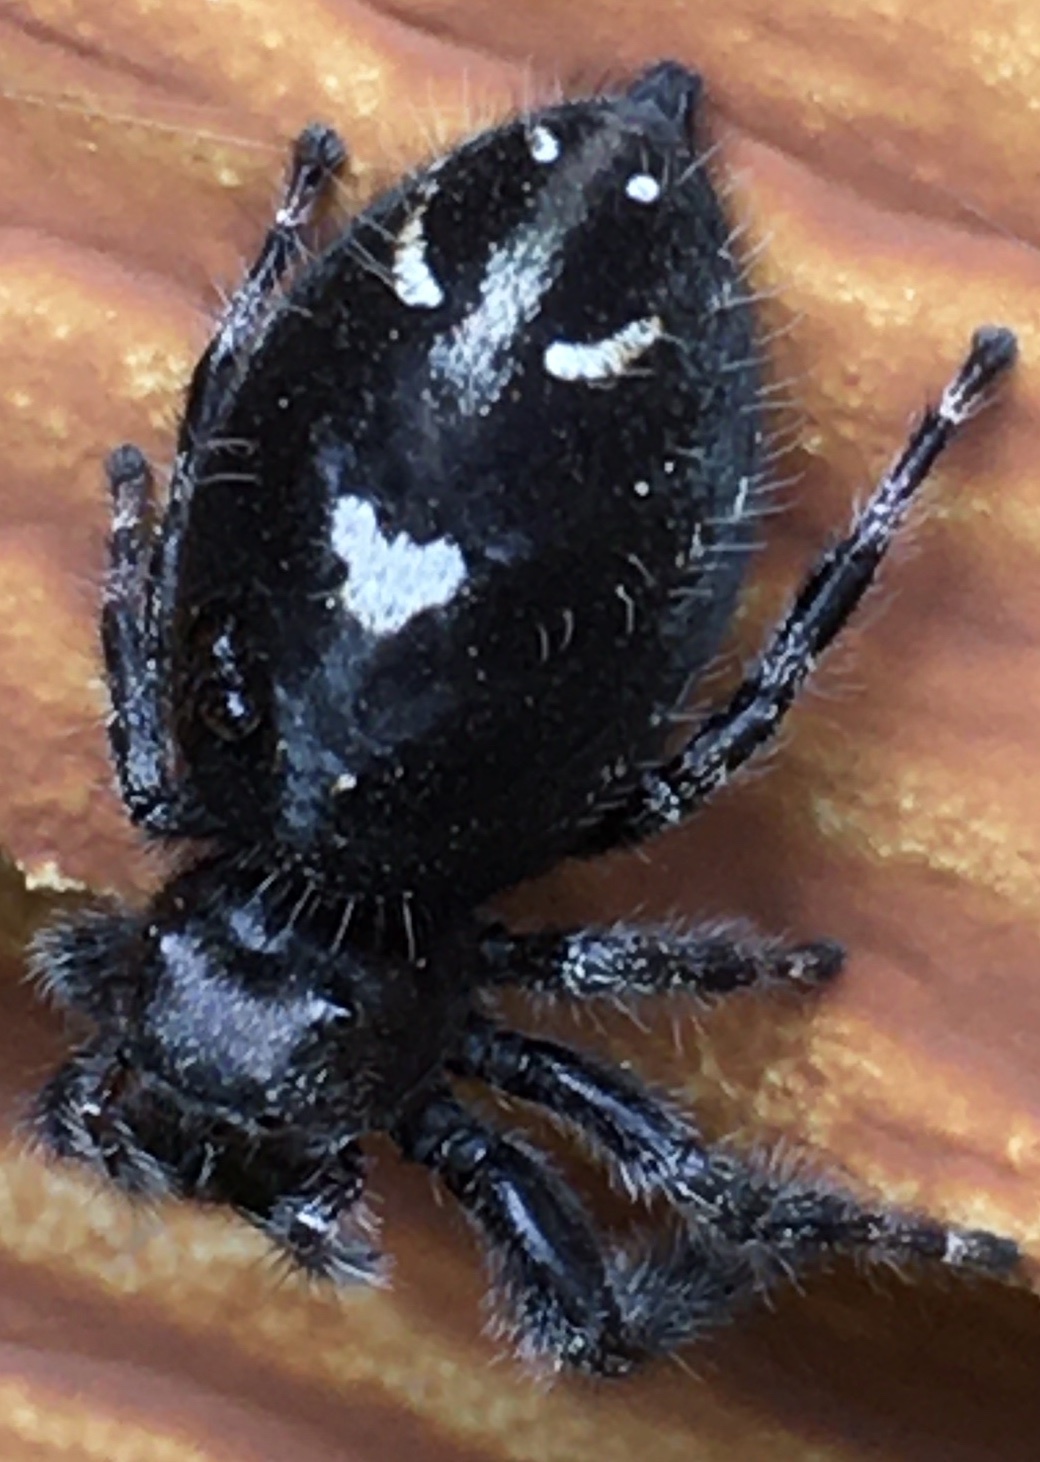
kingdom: Animalia
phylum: Arthropoda
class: Arachnida
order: Araneae
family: Salticidae
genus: Phidippus
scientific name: Phidippus audax
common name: Bold jumper
